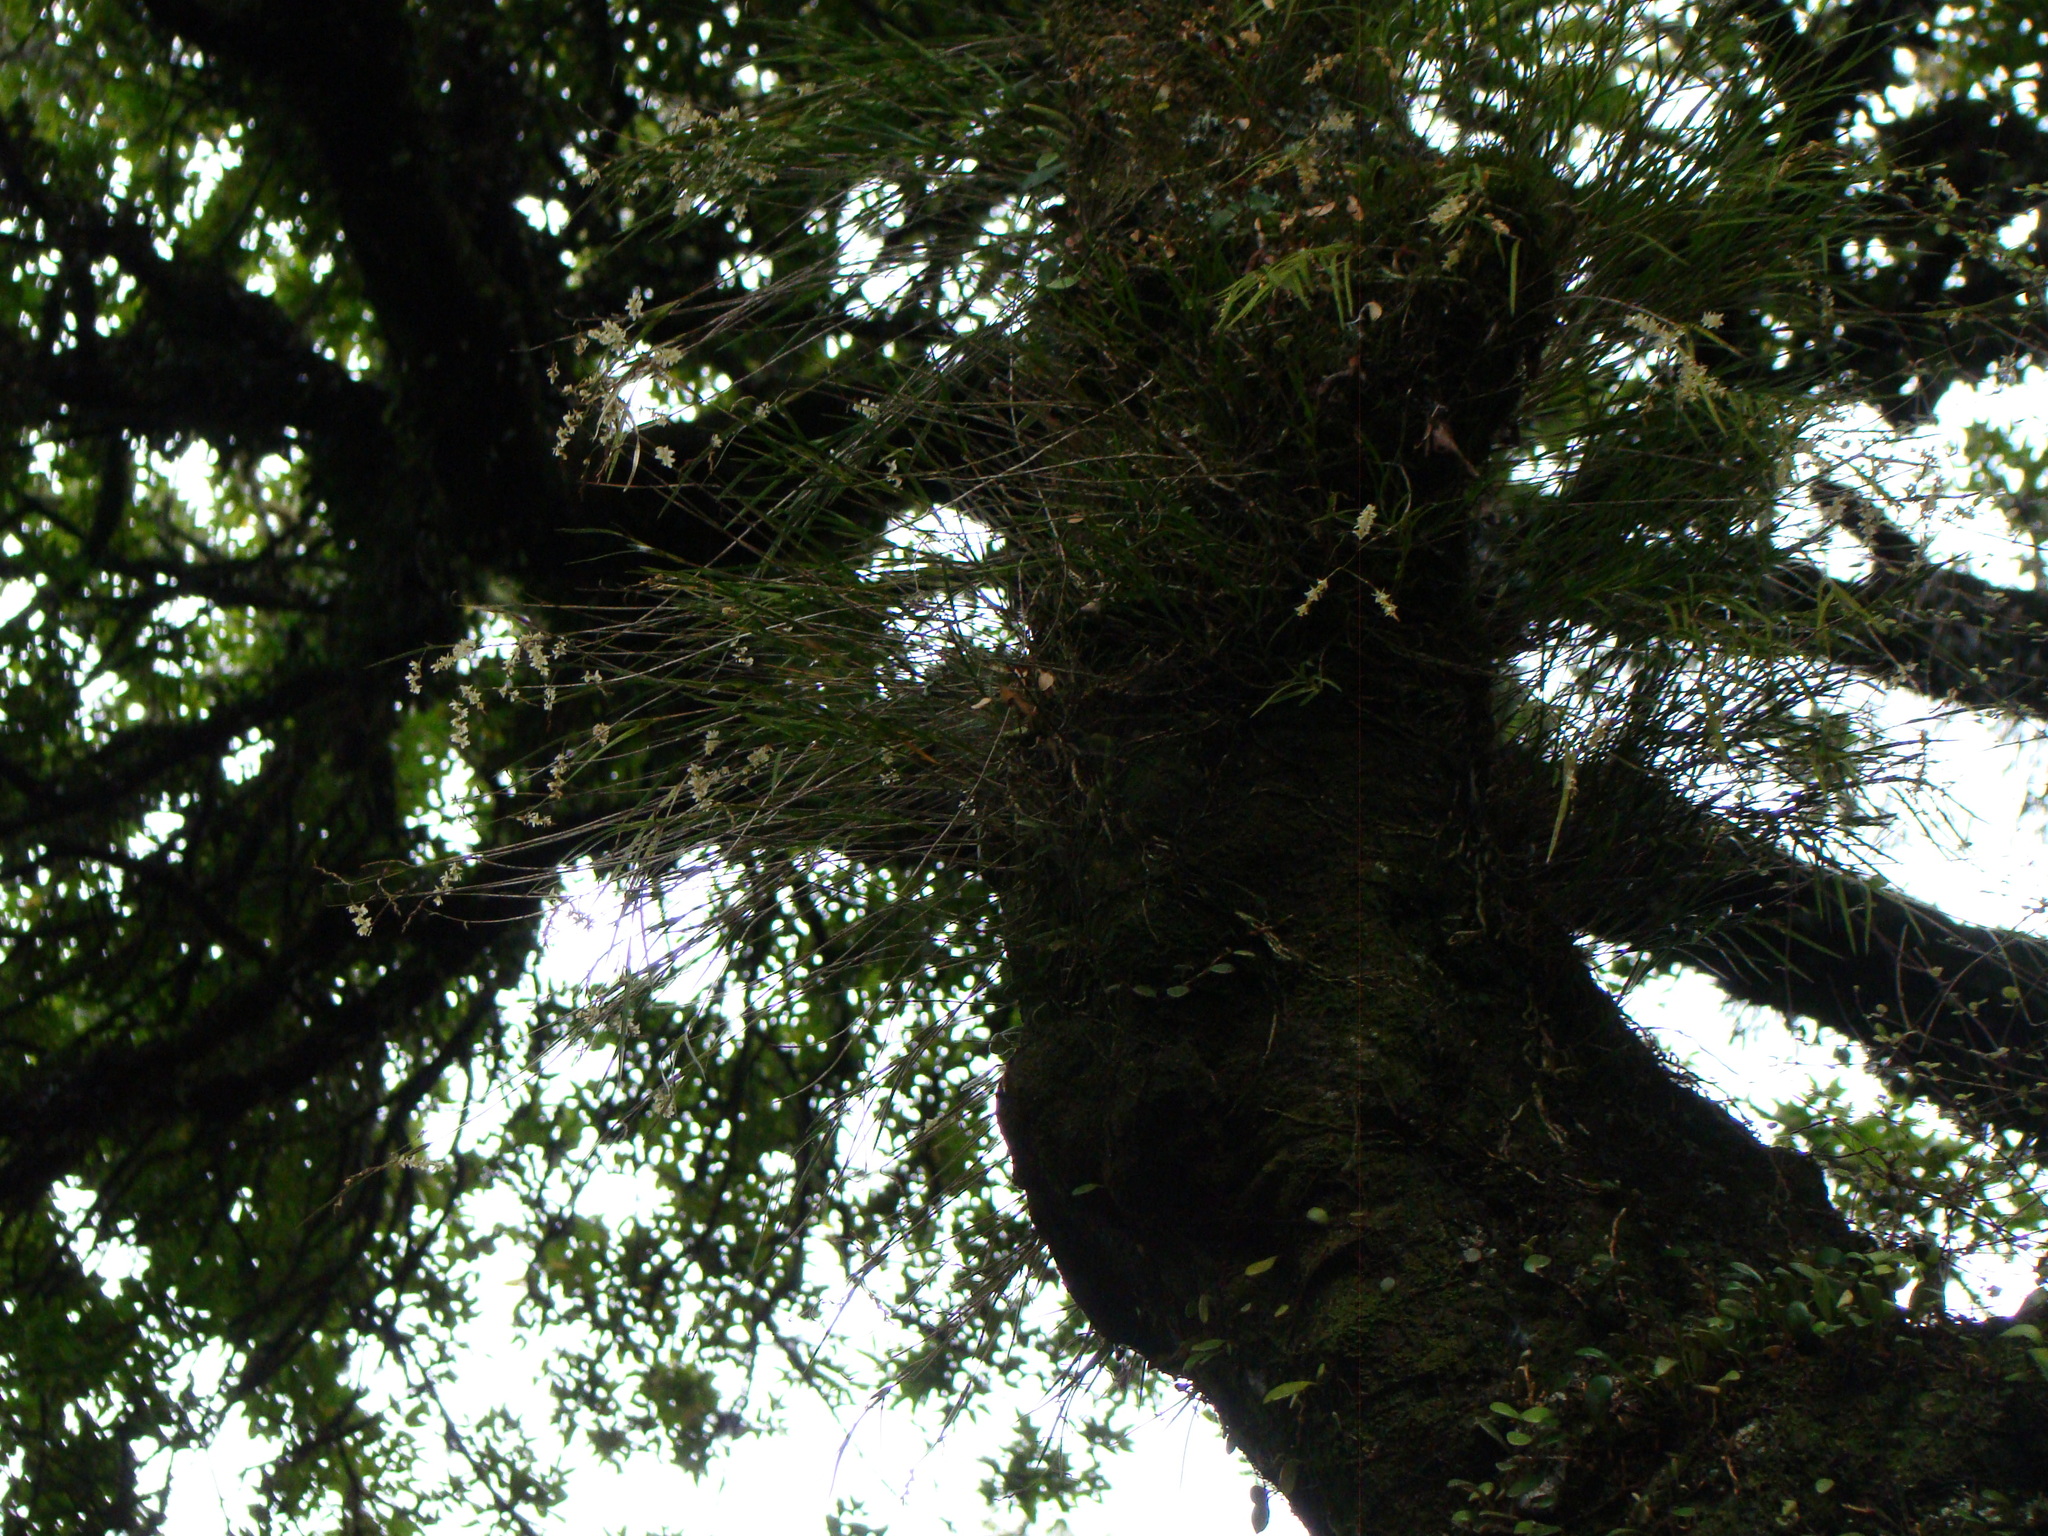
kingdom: Plantae
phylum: Tracheophyta
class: Liliopsida
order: Asparagales
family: Orchidaceae
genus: Earina
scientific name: Earina mucronata
